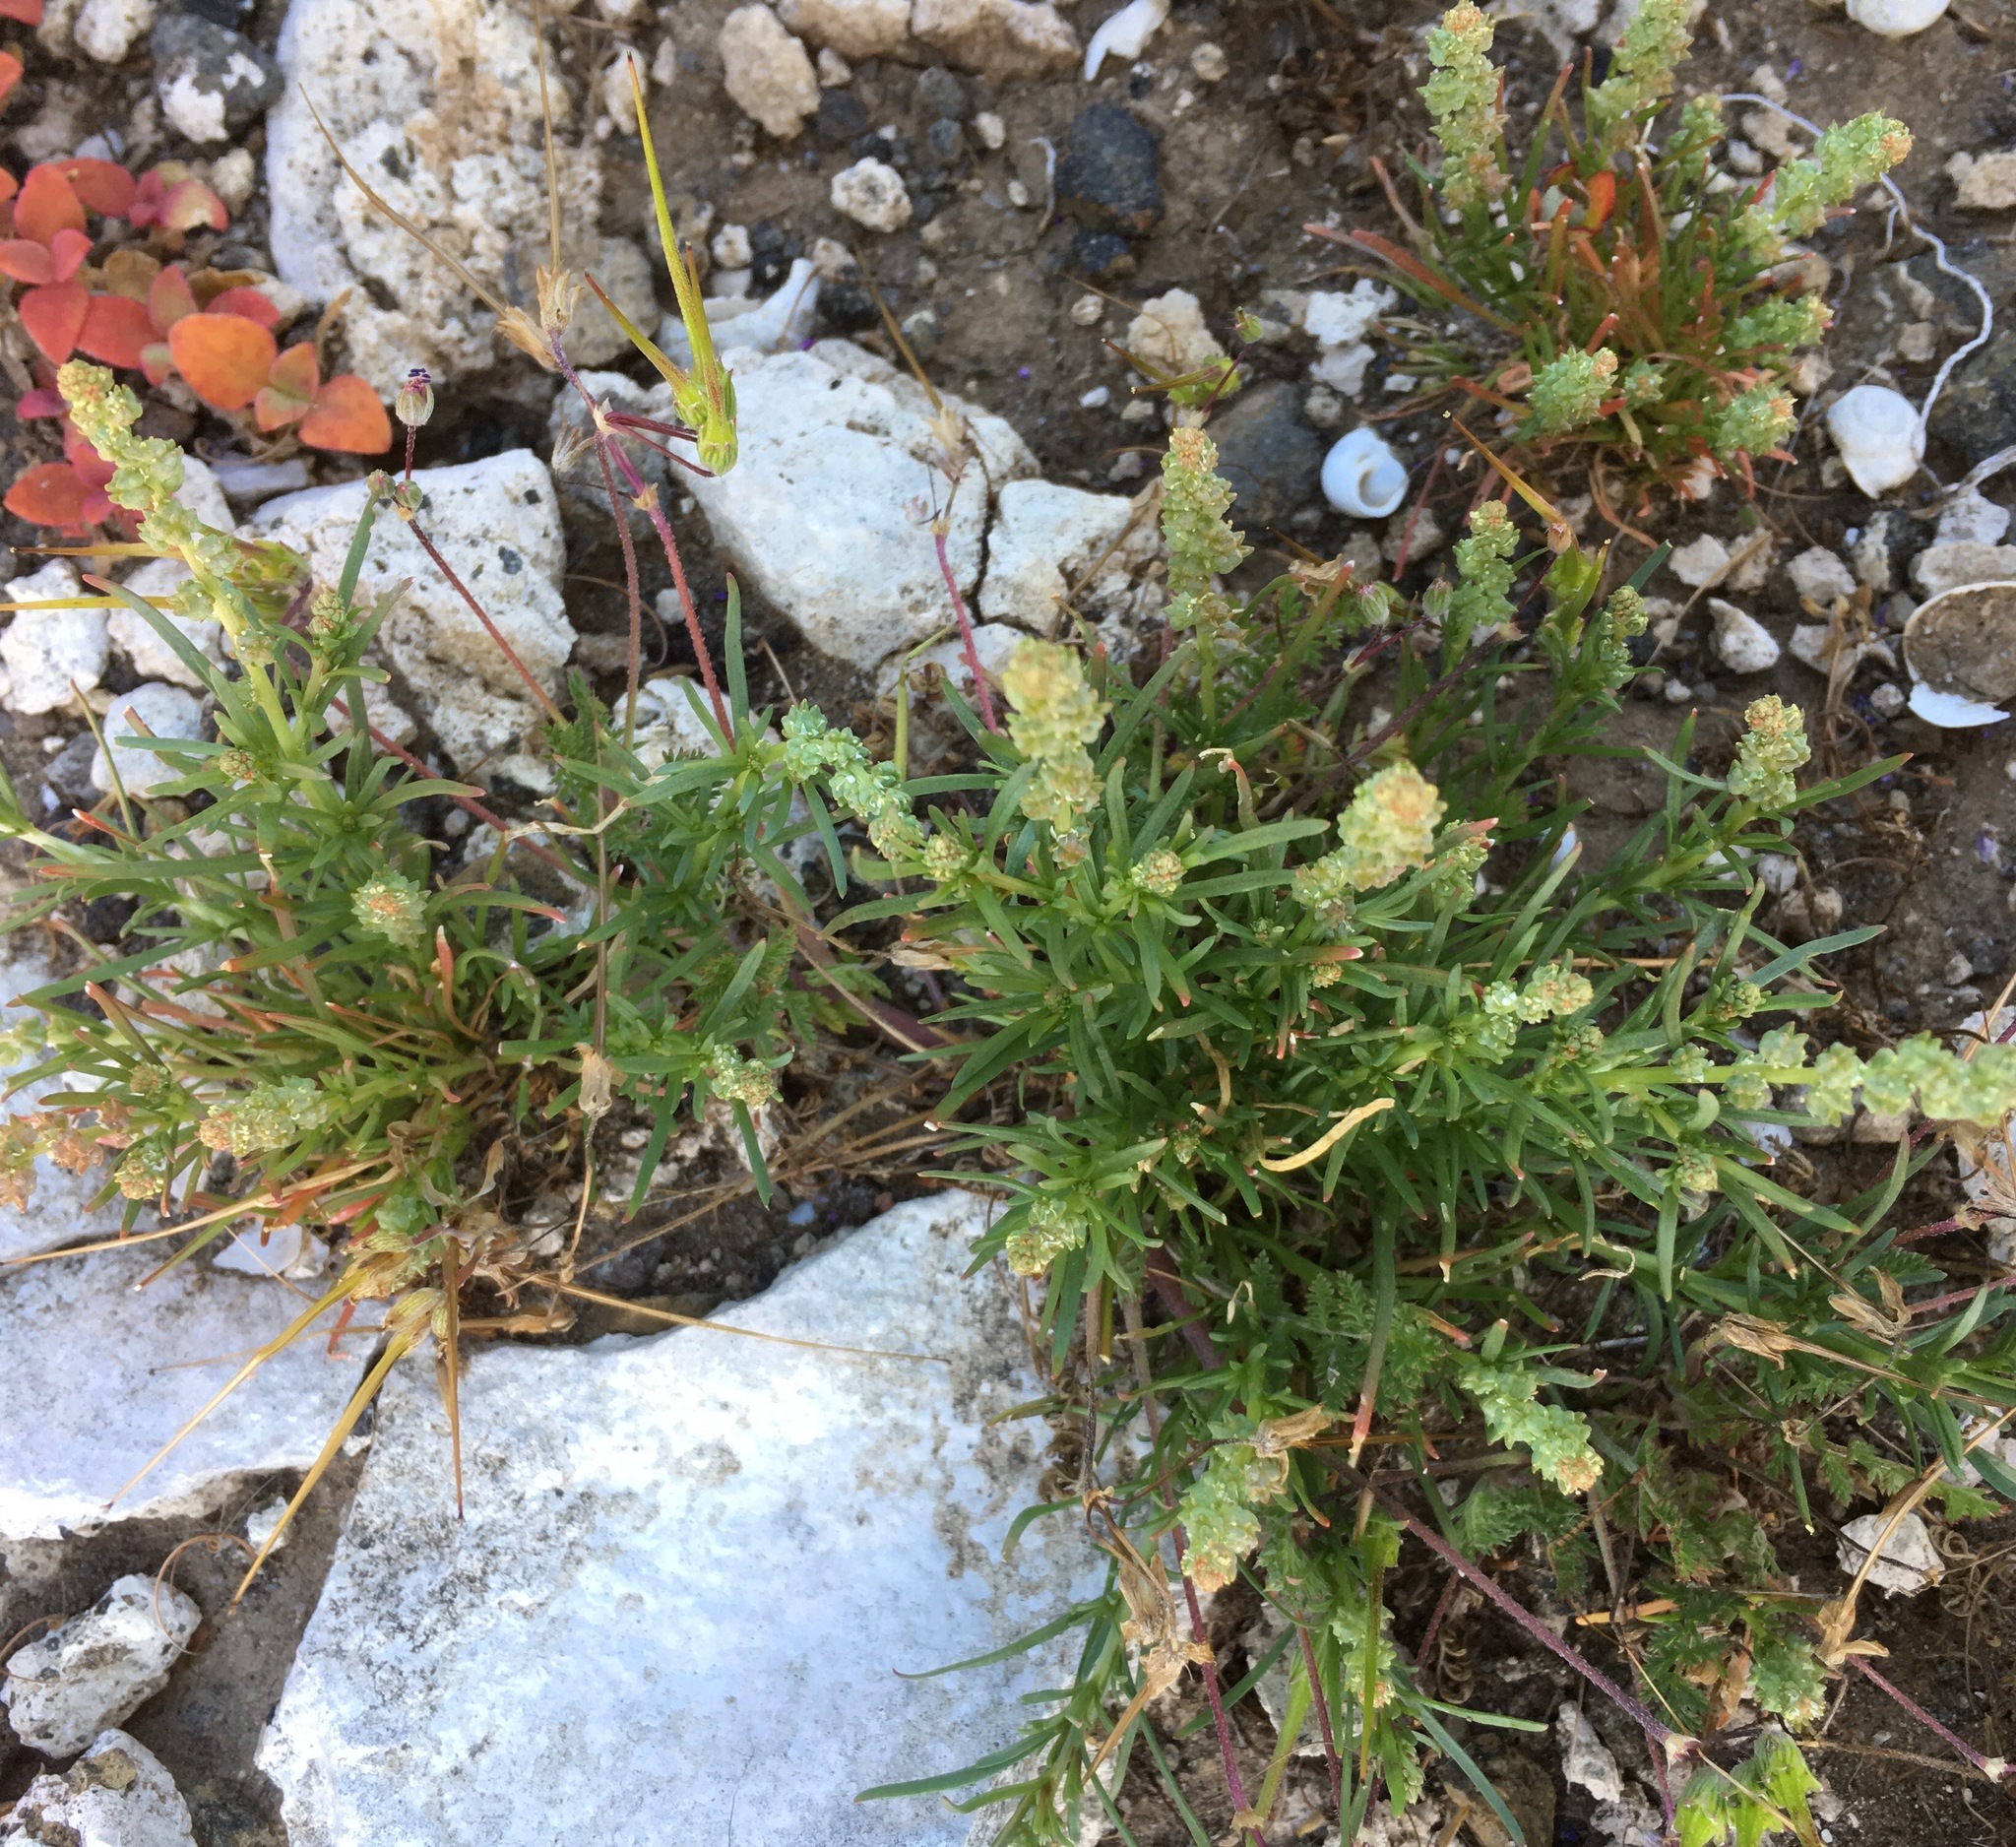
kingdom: Plantae
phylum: Tracheophyta
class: Magnoliopsida
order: Brassicales
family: Resedaceae
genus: Oligomeris
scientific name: Oligomeris linifolia
